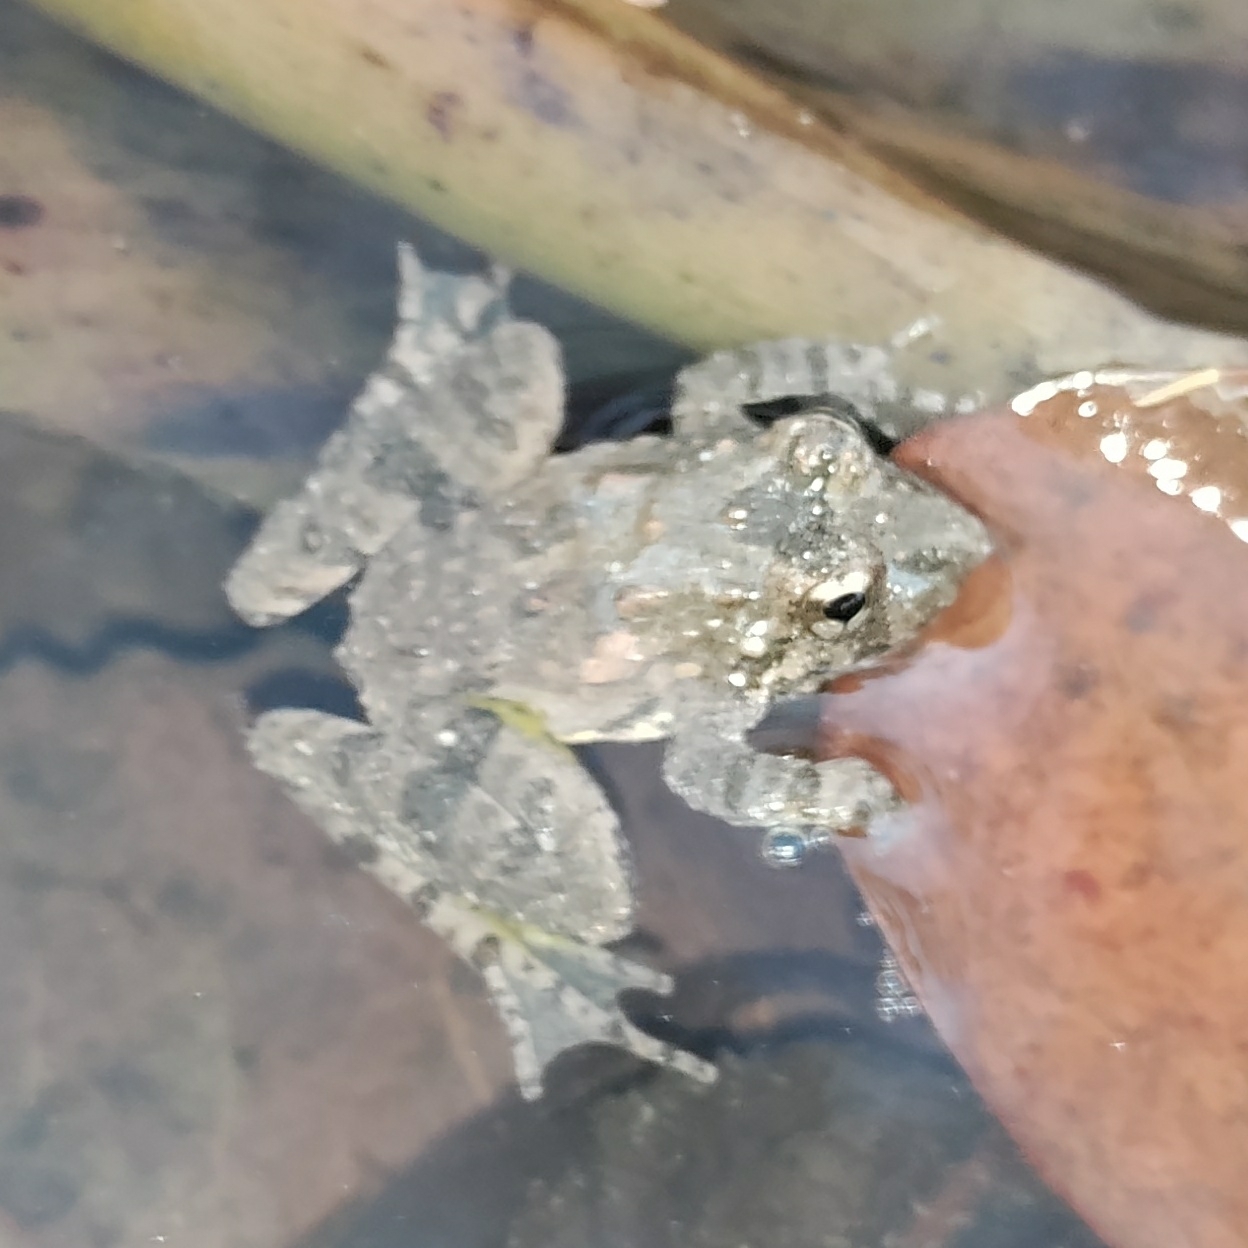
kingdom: Animalia
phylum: Chordata
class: Amphibia
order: Anura
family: Hylidae
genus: Acris
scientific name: Acris blanchardi
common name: Blanchard's cricket frog
